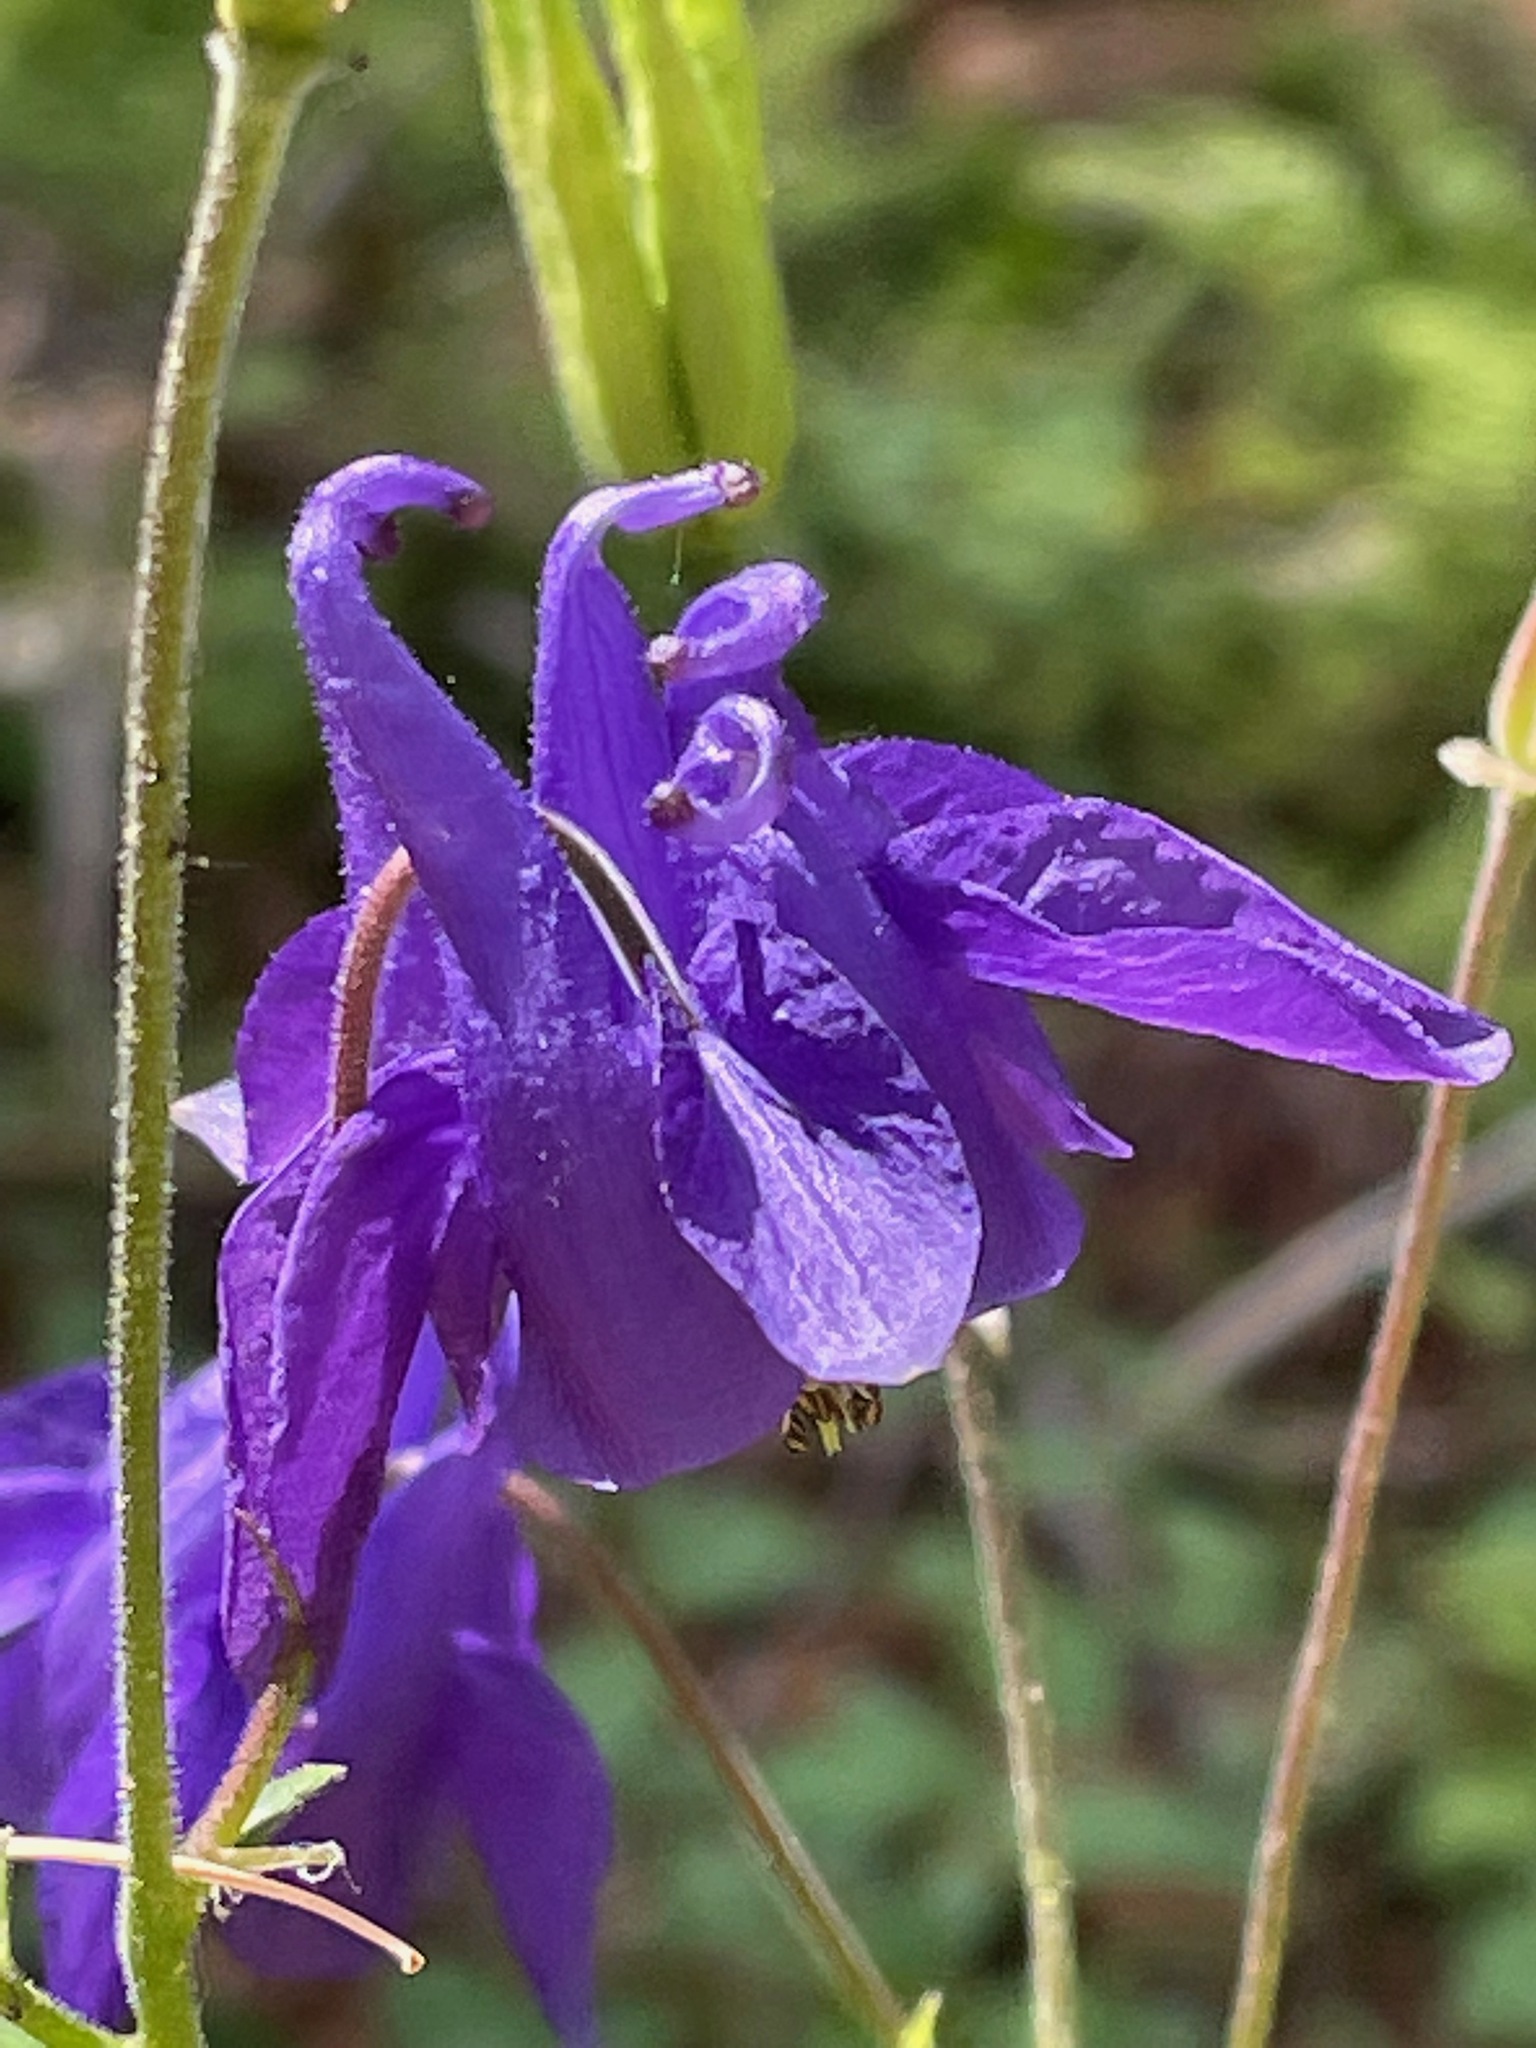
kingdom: Plantae
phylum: Tracheophyta
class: Magnoliopsida
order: Ranunculales
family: Ranunculaceae
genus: Aquilegia
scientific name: Aquilegia vulgaris
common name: Columbine
